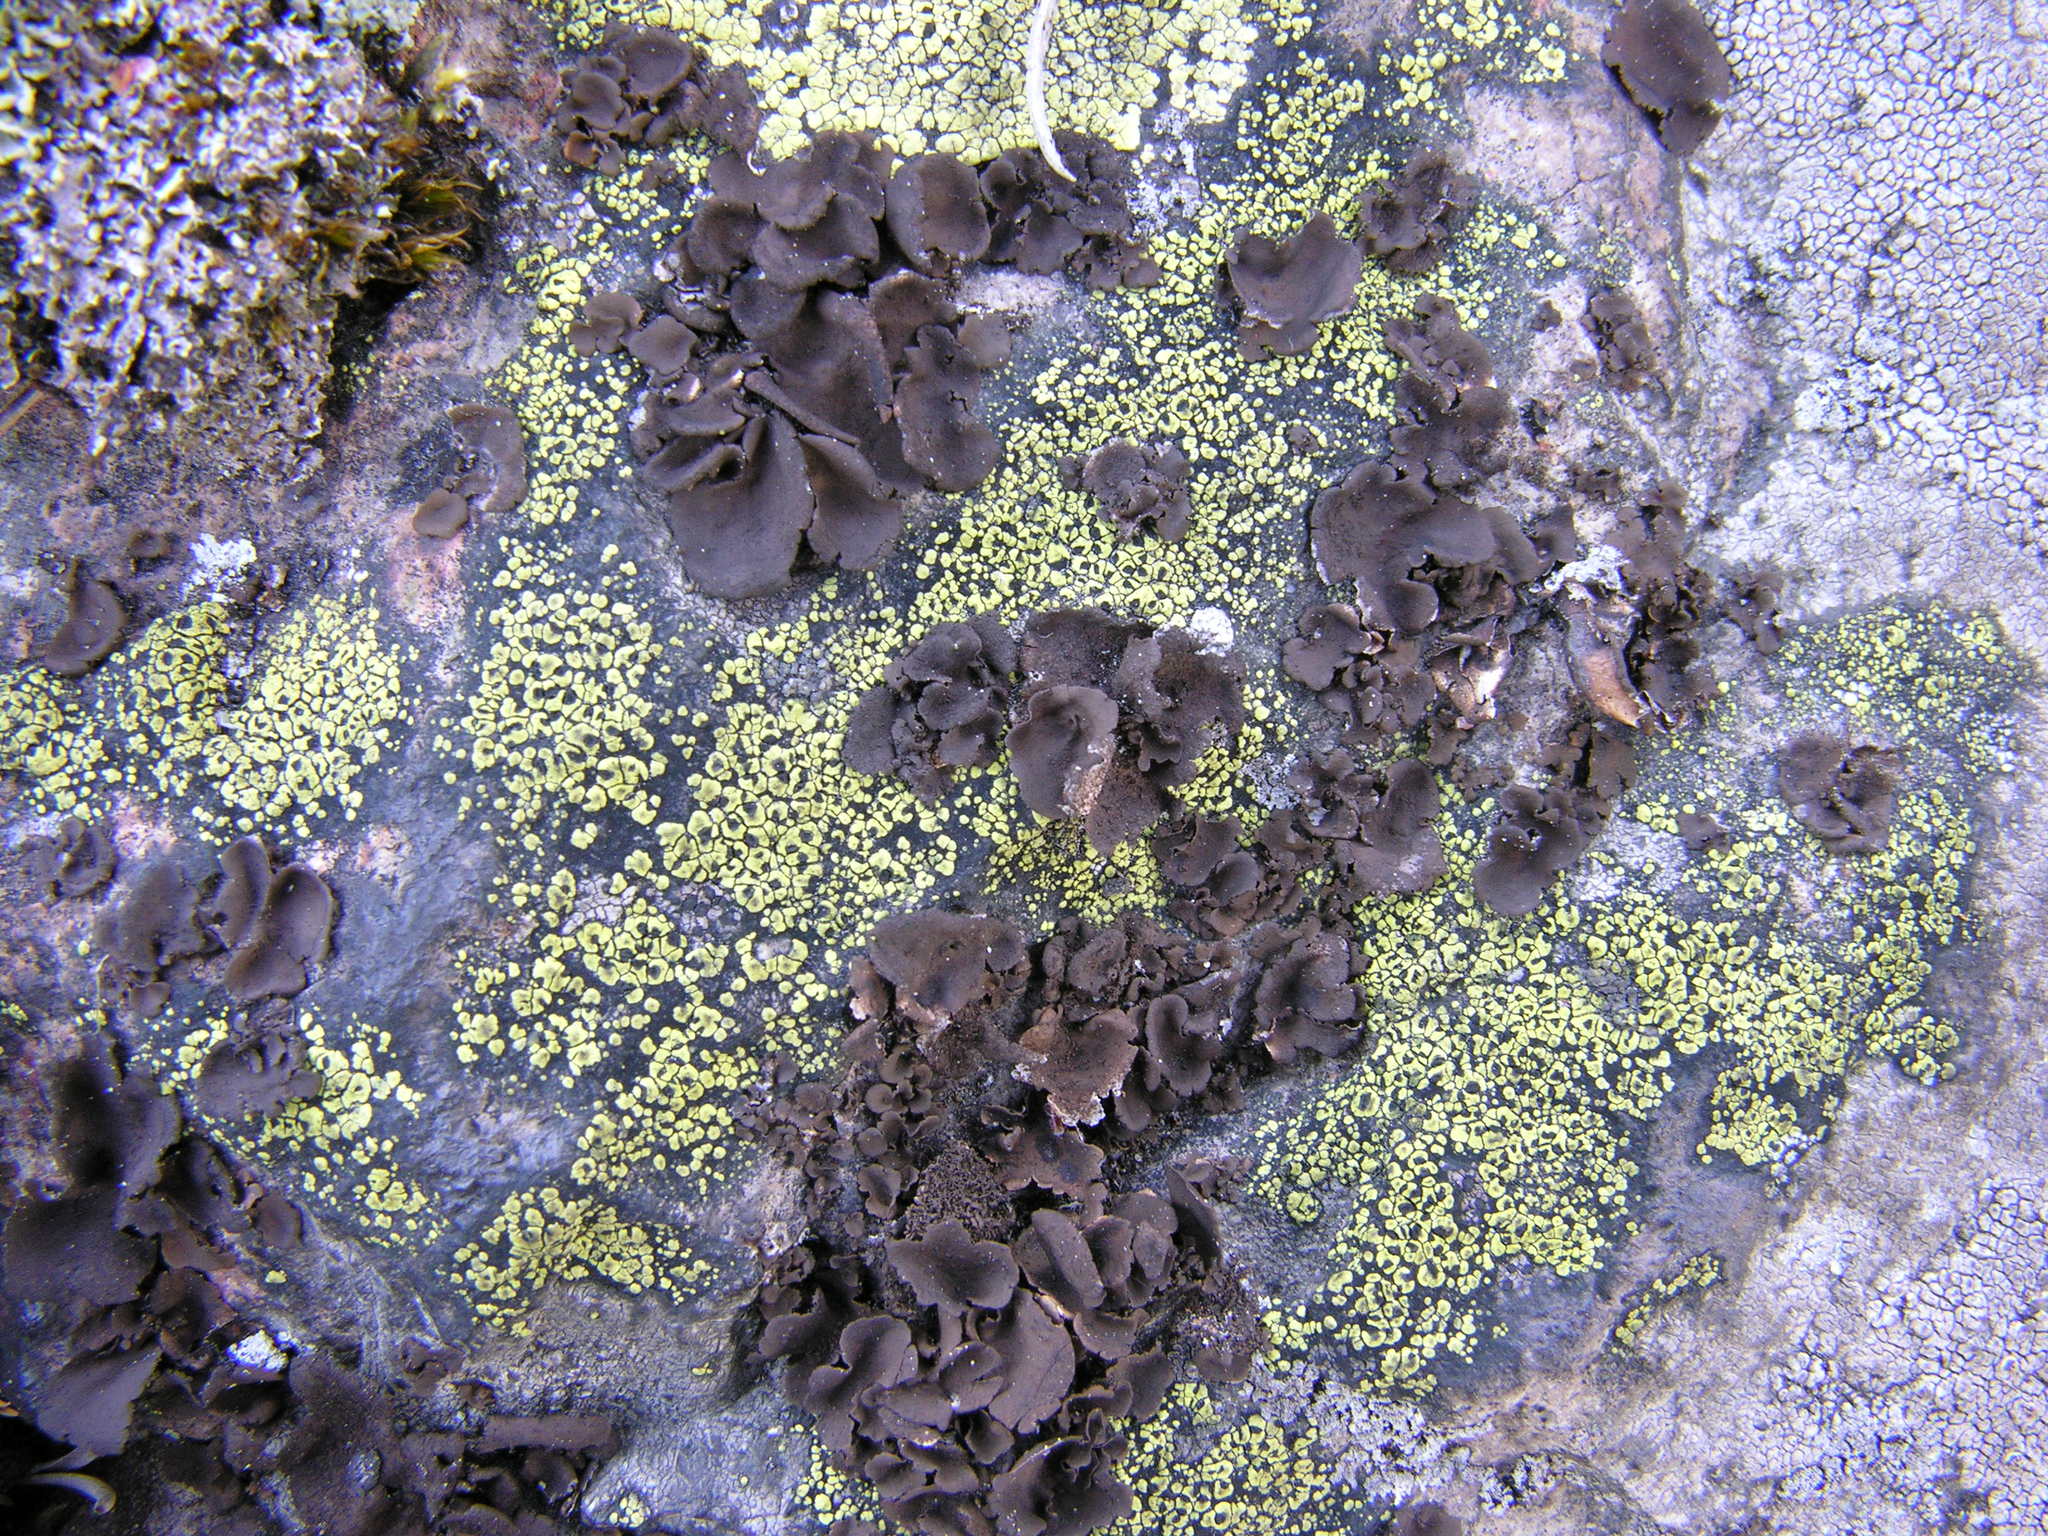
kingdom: Fungi
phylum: Ascomycota
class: Lecanoromycetes
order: Umbilicariales
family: Umbilicariaceae
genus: Umbilicaria
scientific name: Umbilicaria deusta
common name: Peppered rock tripe
